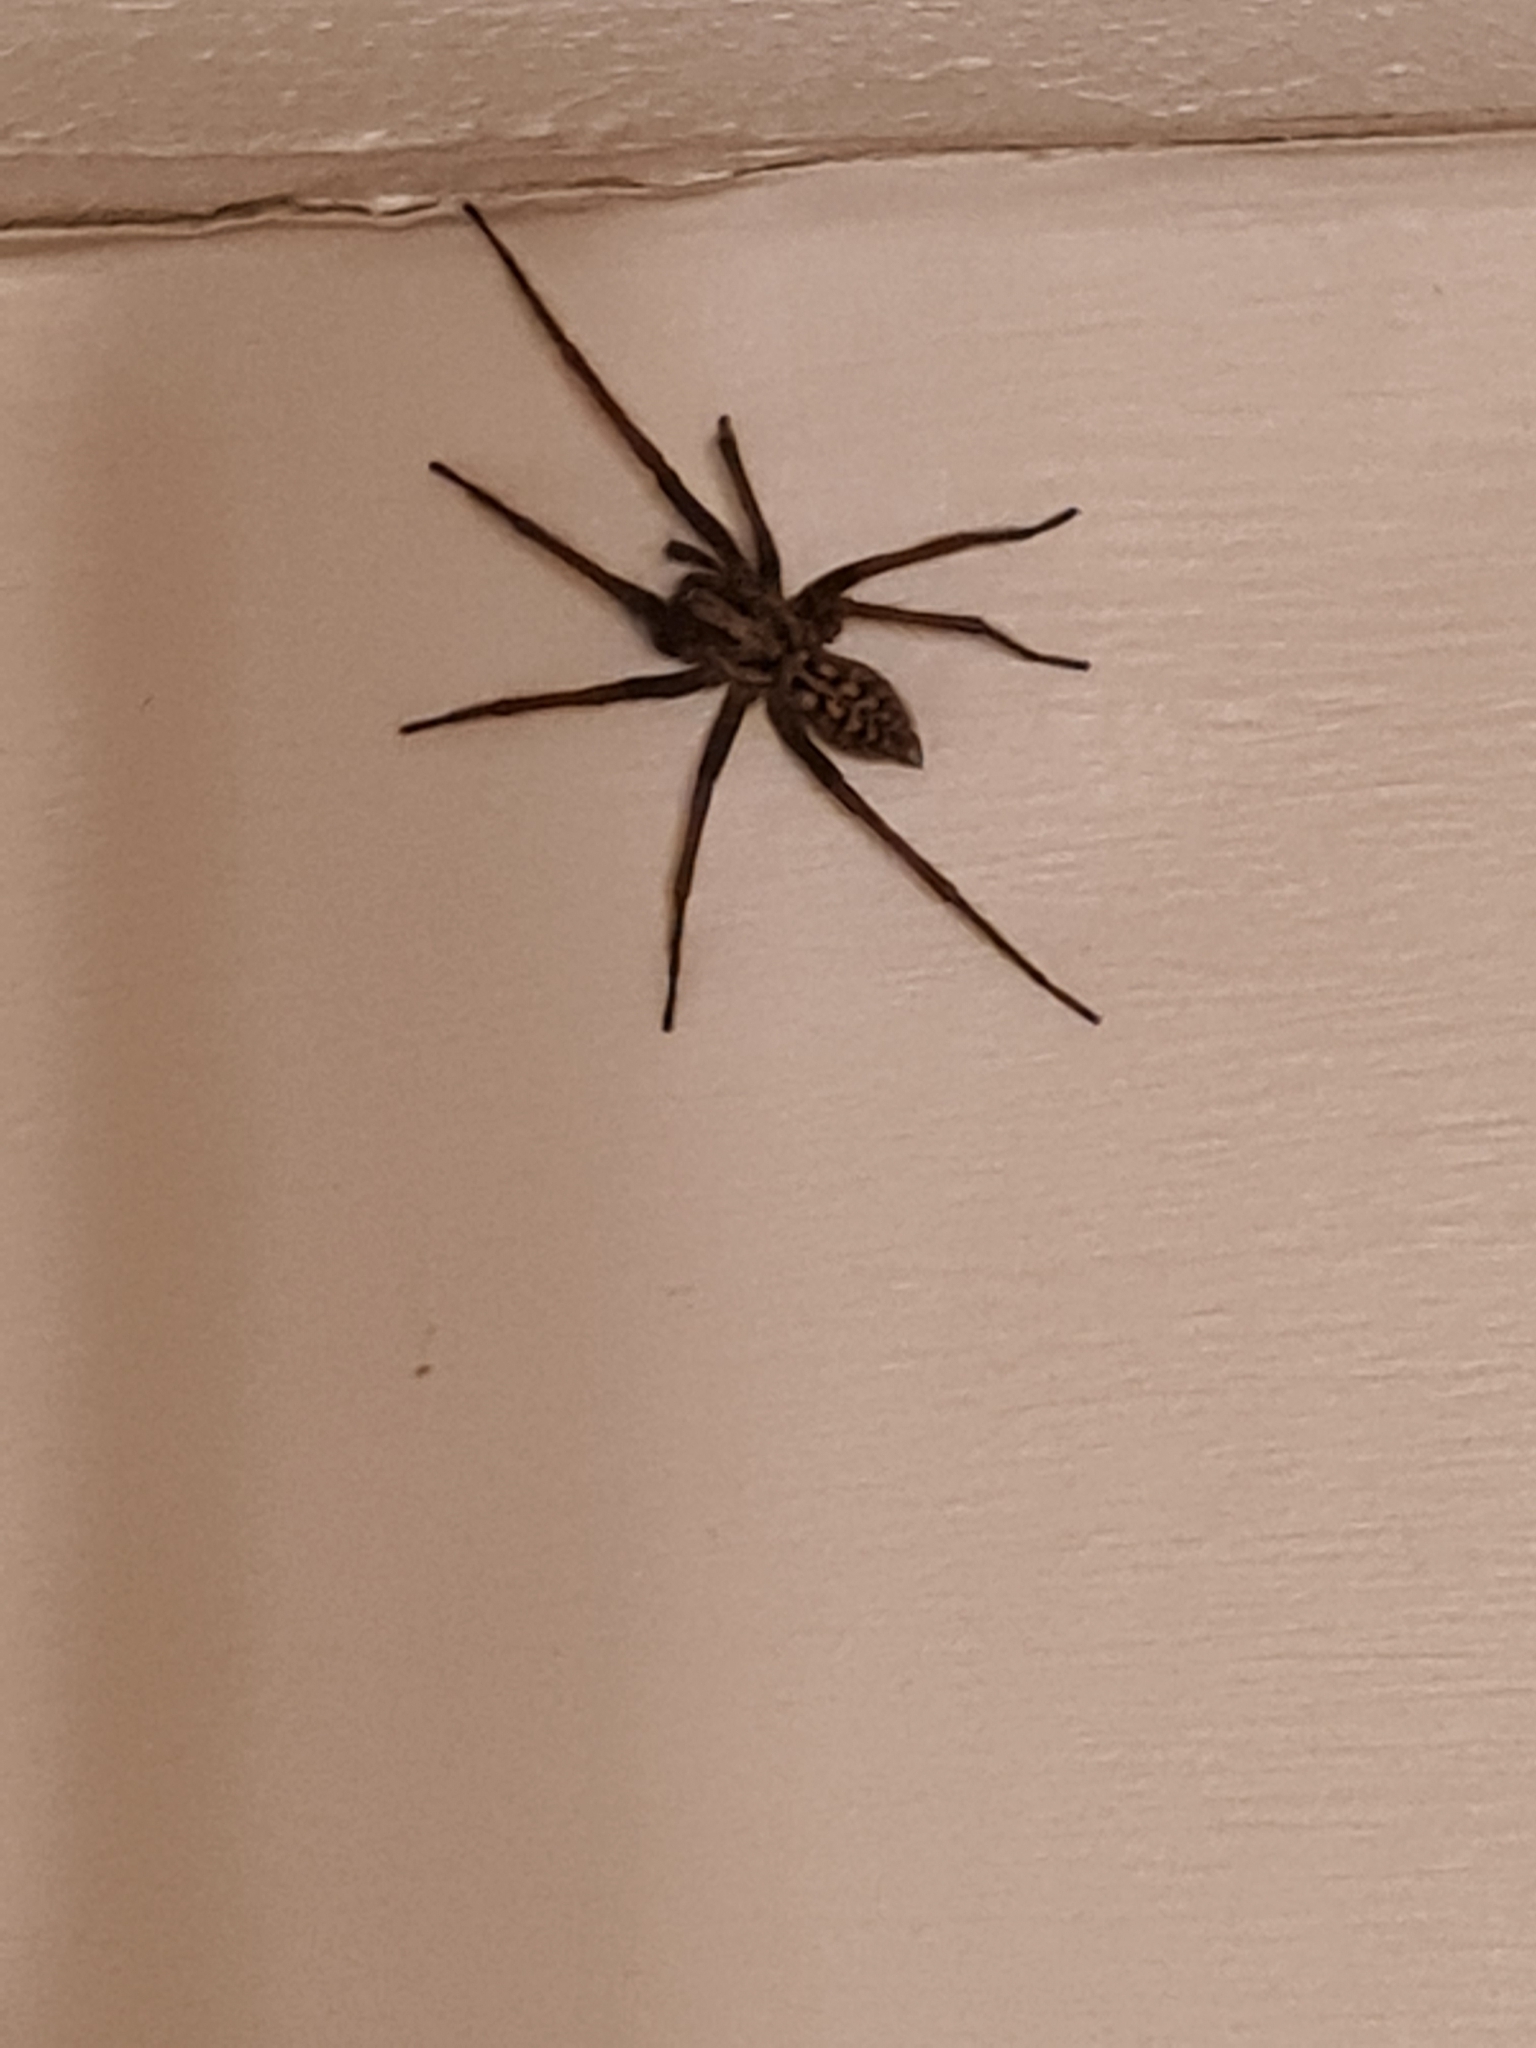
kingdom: Animalia
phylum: Arthropoda
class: Arachnida
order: Araneae
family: Agelenidae
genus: Eratigena
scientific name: Eratigena
